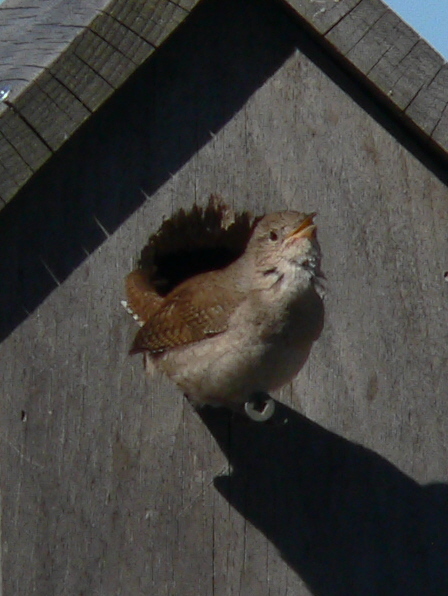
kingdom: Animalia
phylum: Chordata
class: Aves
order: Passeriformes
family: Troglodytidae
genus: Troglodytes
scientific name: Troglodytes aedon
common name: House wren
